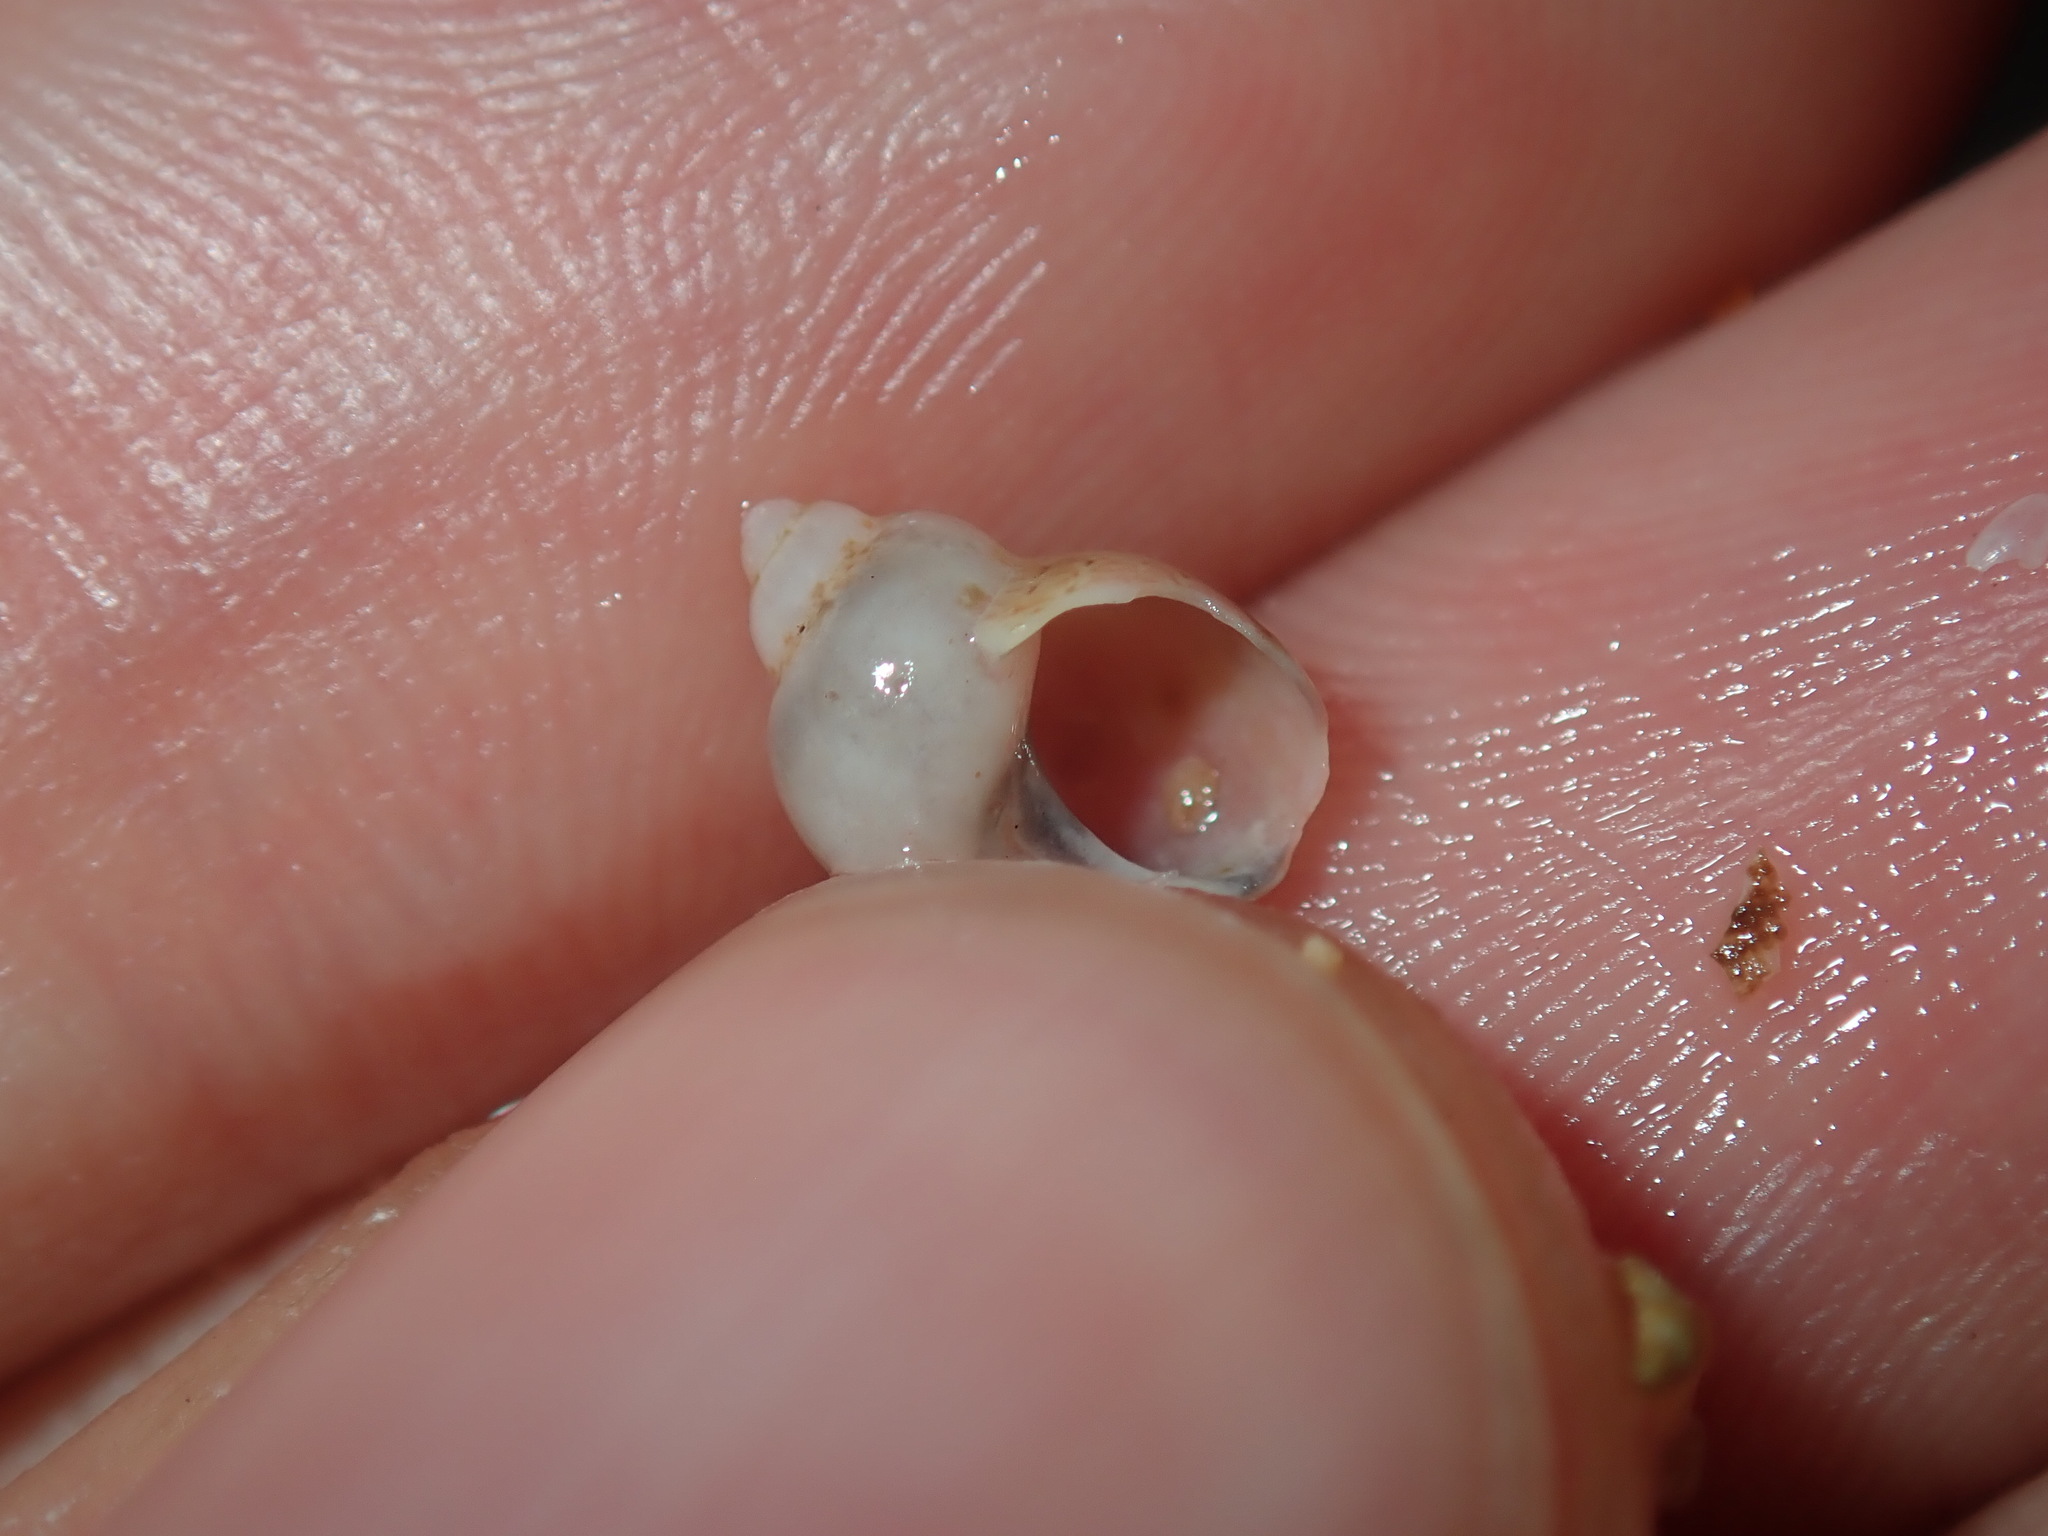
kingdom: Animalia
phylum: Mollusca
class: Gastropoda
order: Trochida
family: Phasianellidae
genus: Phasianella
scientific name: Phasianella ventricosa
